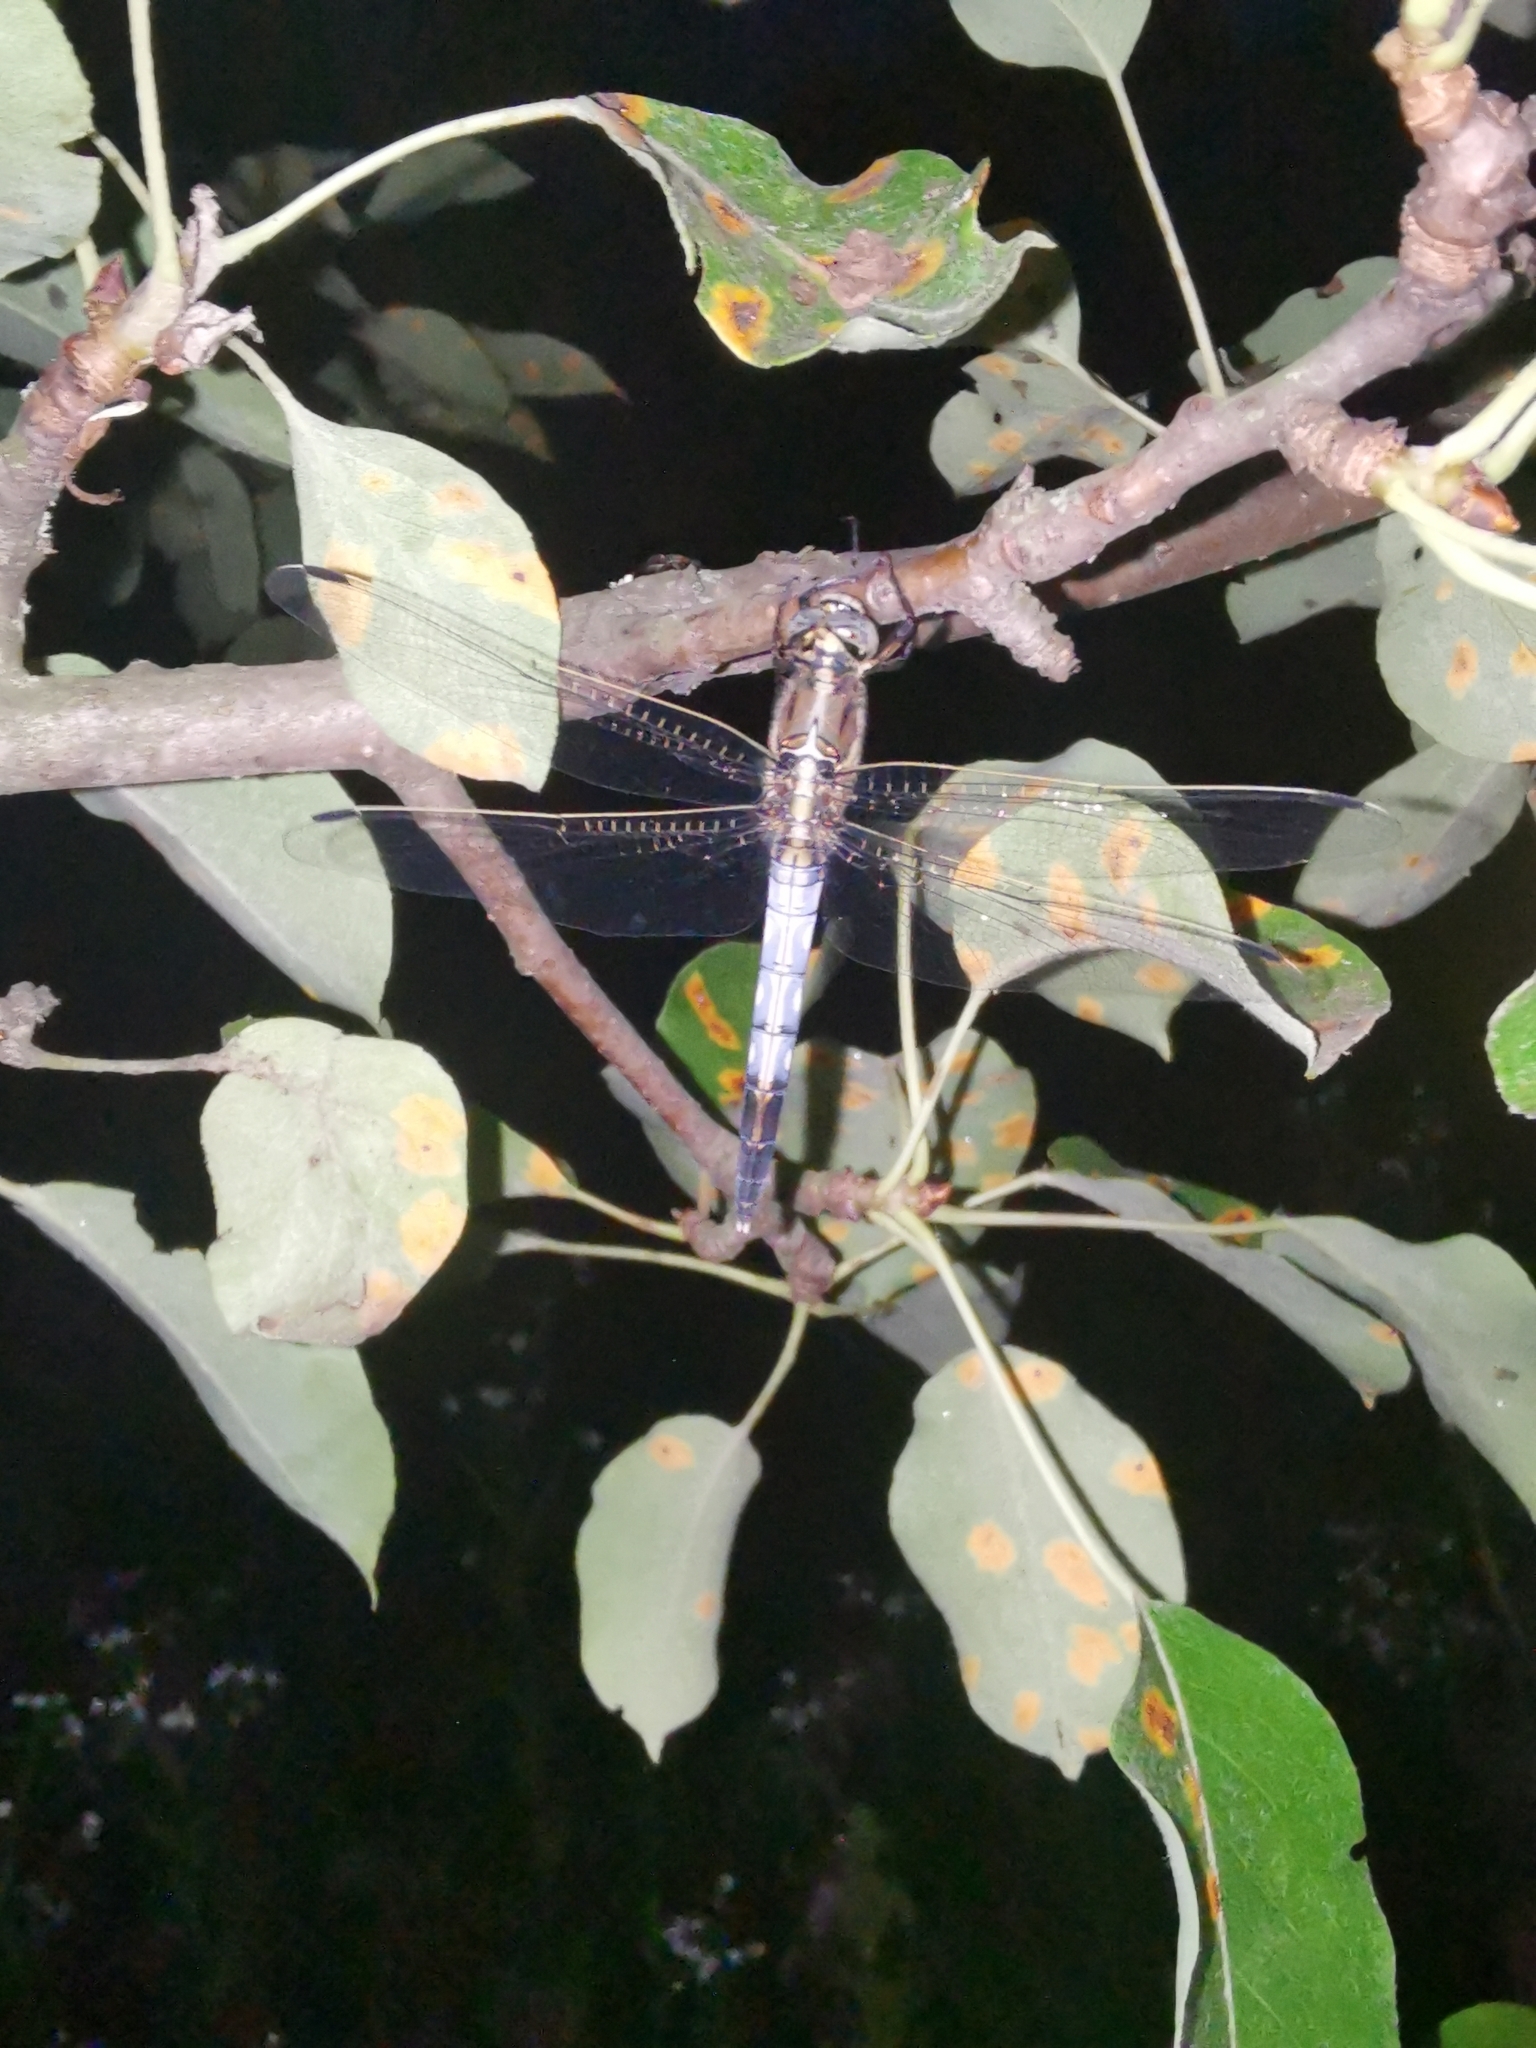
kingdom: Animalia
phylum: Arthropoda
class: Insecta
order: Odonata
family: Libellulidae
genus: Orthetrum
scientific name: Orthetrum albistylum
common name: White-tailed skimmer
